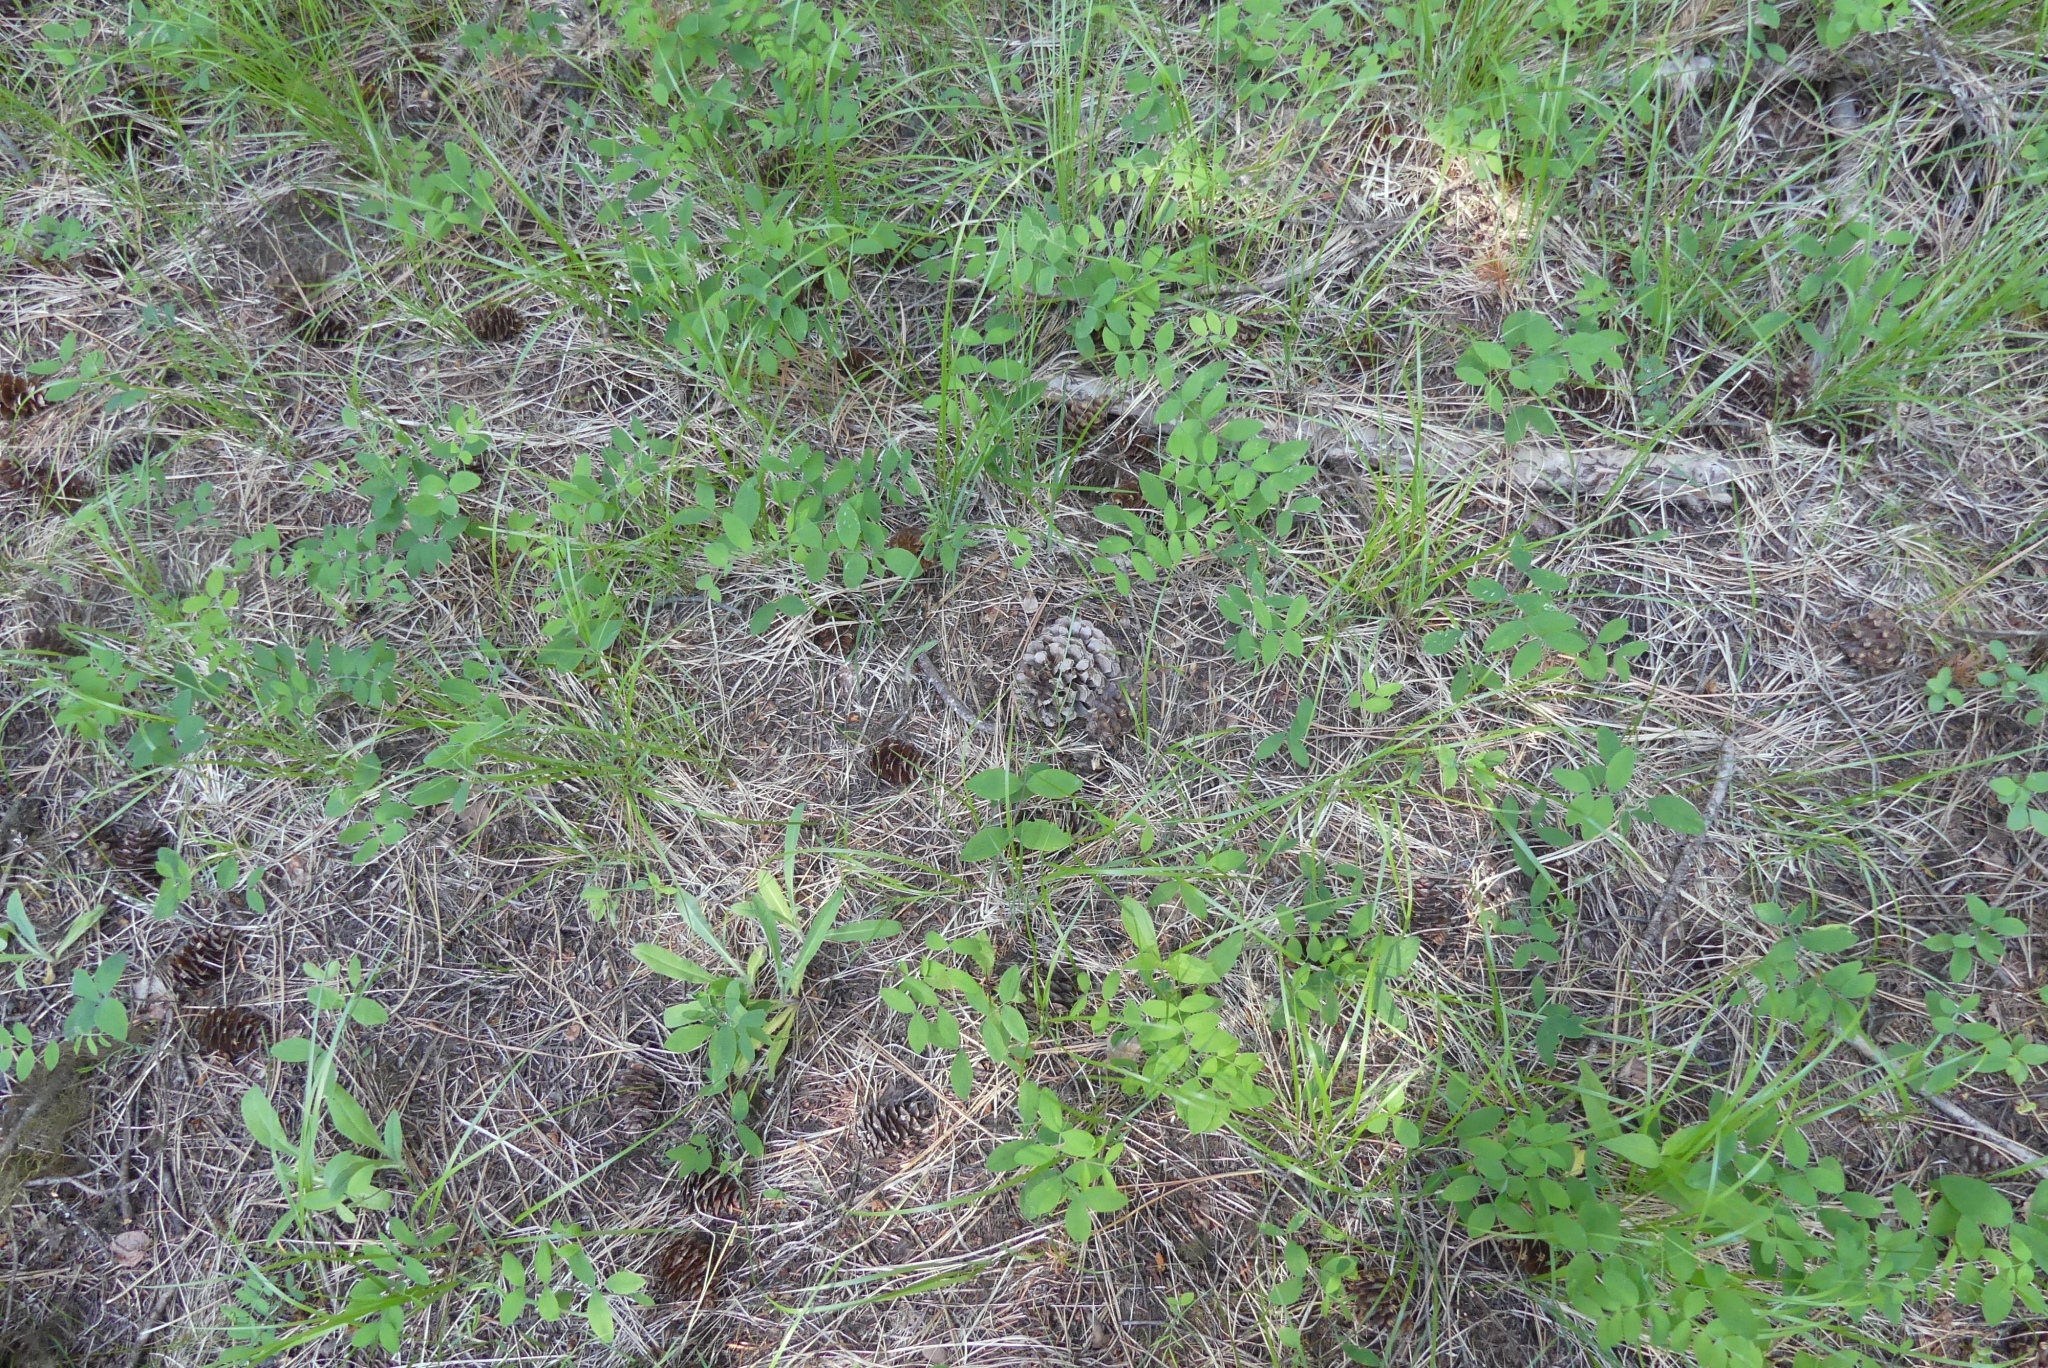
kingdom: Plantae
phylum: Tracheophyta
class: Pinopsida
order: Pinales
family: Pinaceae
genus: Pinus
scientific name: Pinus ponderosa
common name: Western yellow-pine
